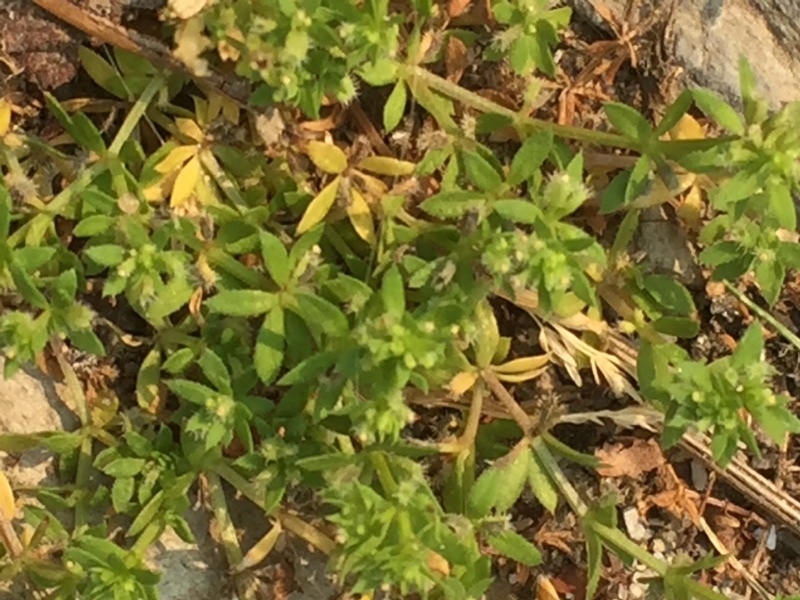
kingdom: Plantae
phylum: Tracheophyta
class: Magnoliopsida
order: Gentianales
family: Rubiaceae
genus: Galium
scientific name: Galium murale
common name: Yellow wall bedstraw
